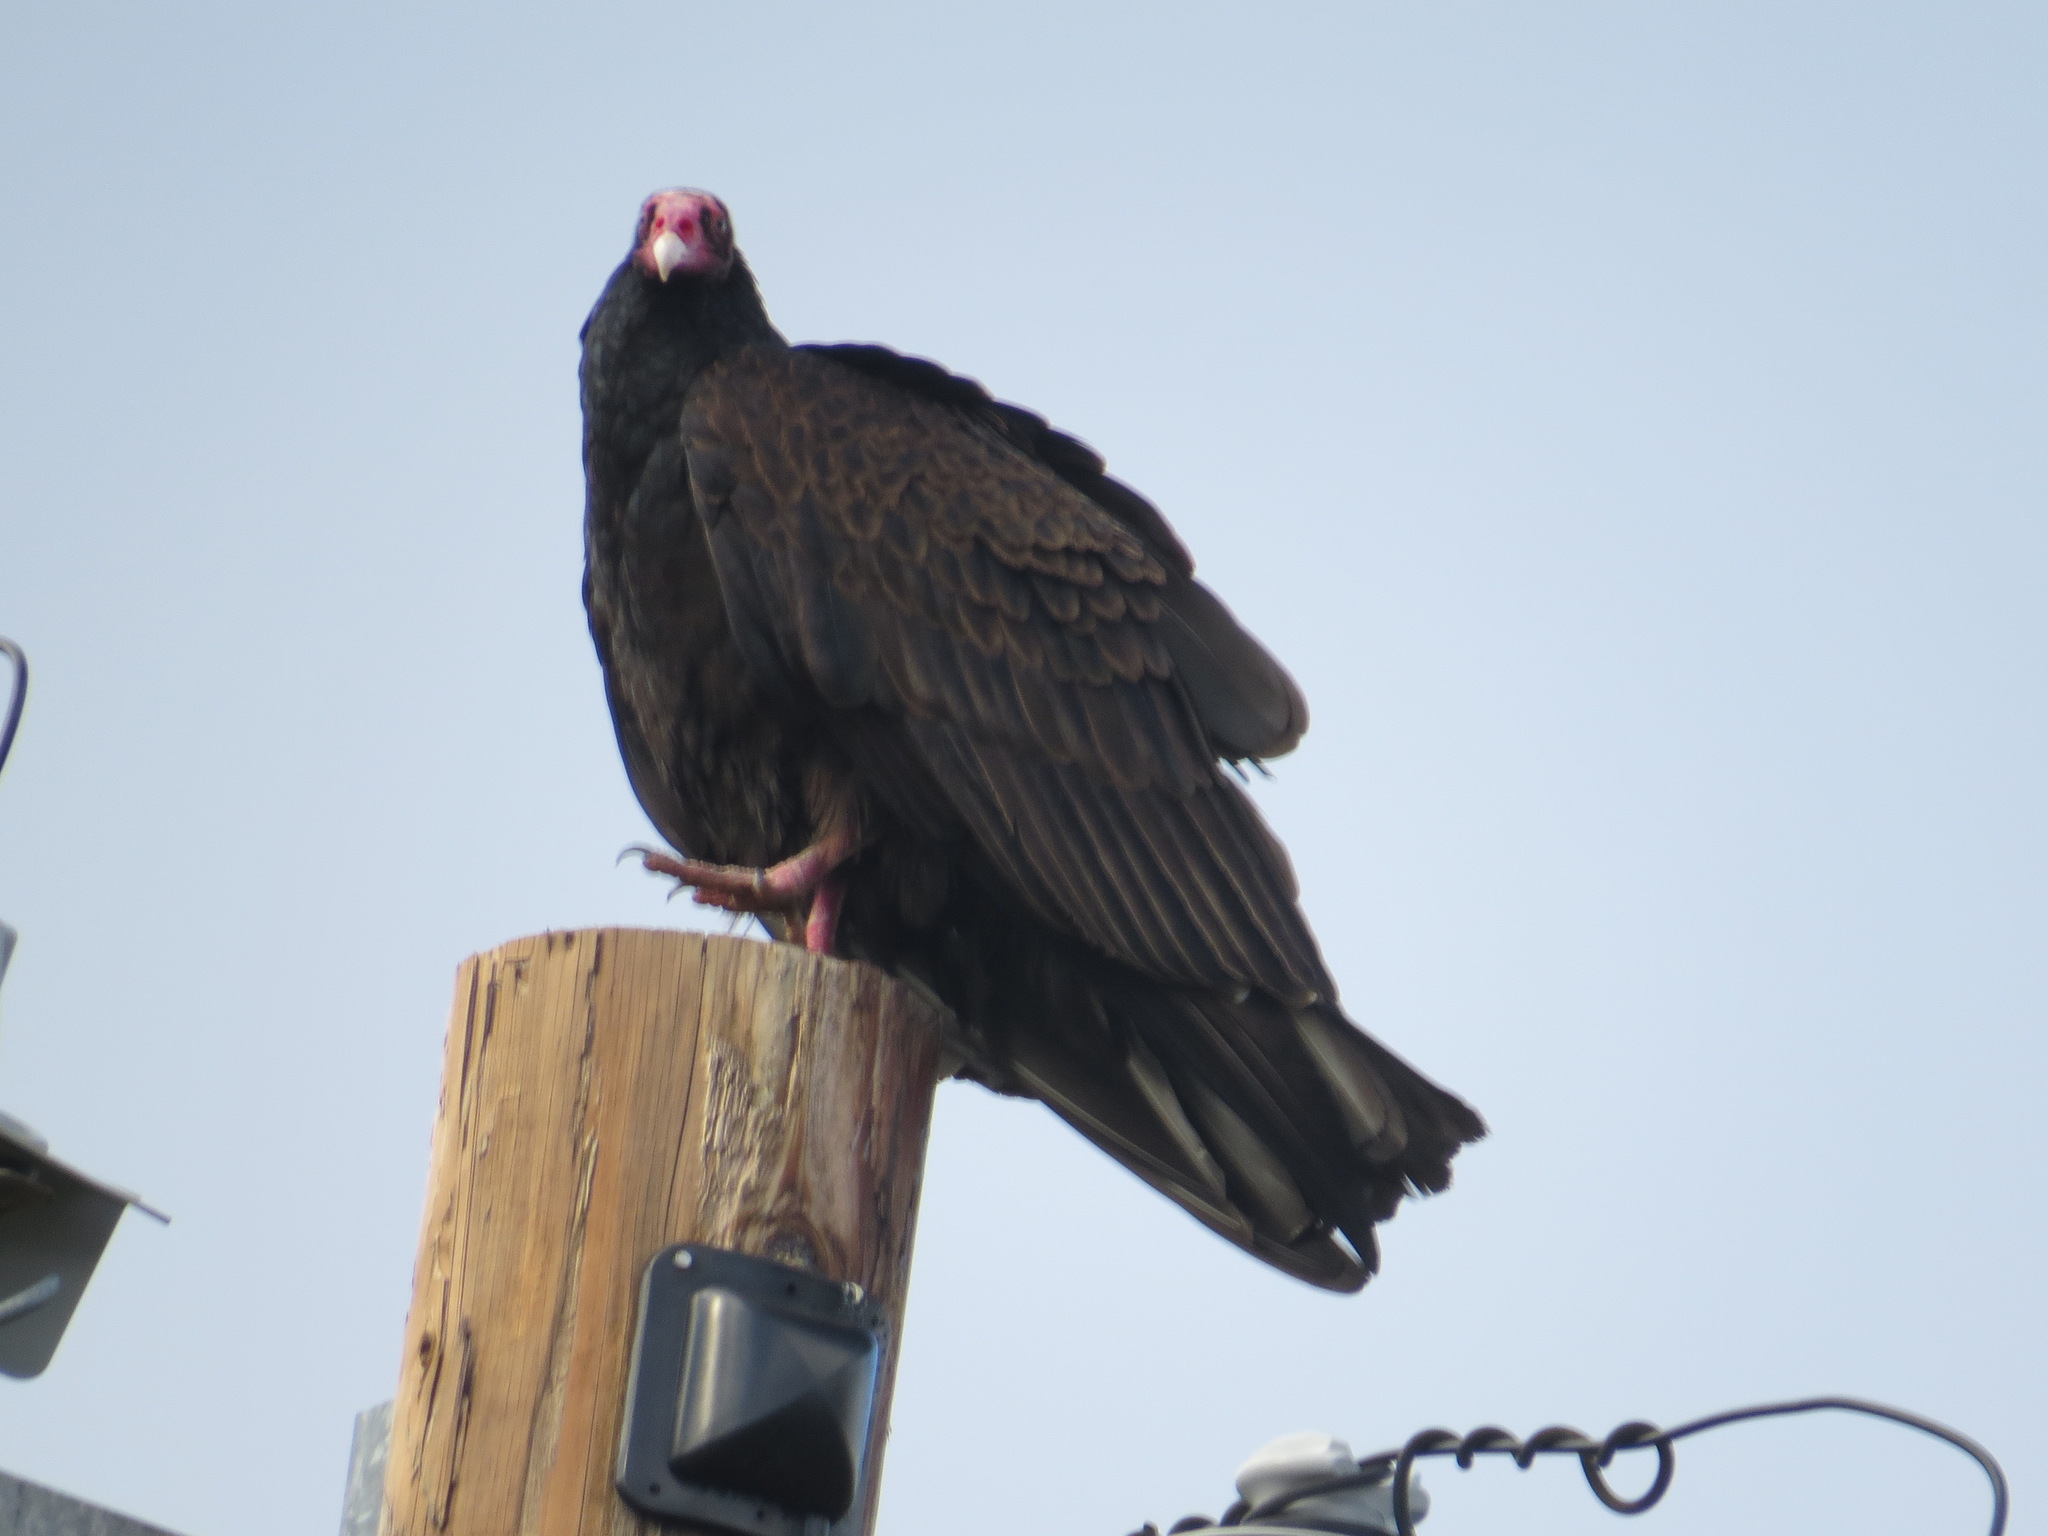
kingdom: Animalia
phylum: Chordata
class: Aves
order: Accipitriformes
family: Cathartidae
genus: Cathartes
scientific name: Cathartes aura
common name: Turkey vulture
